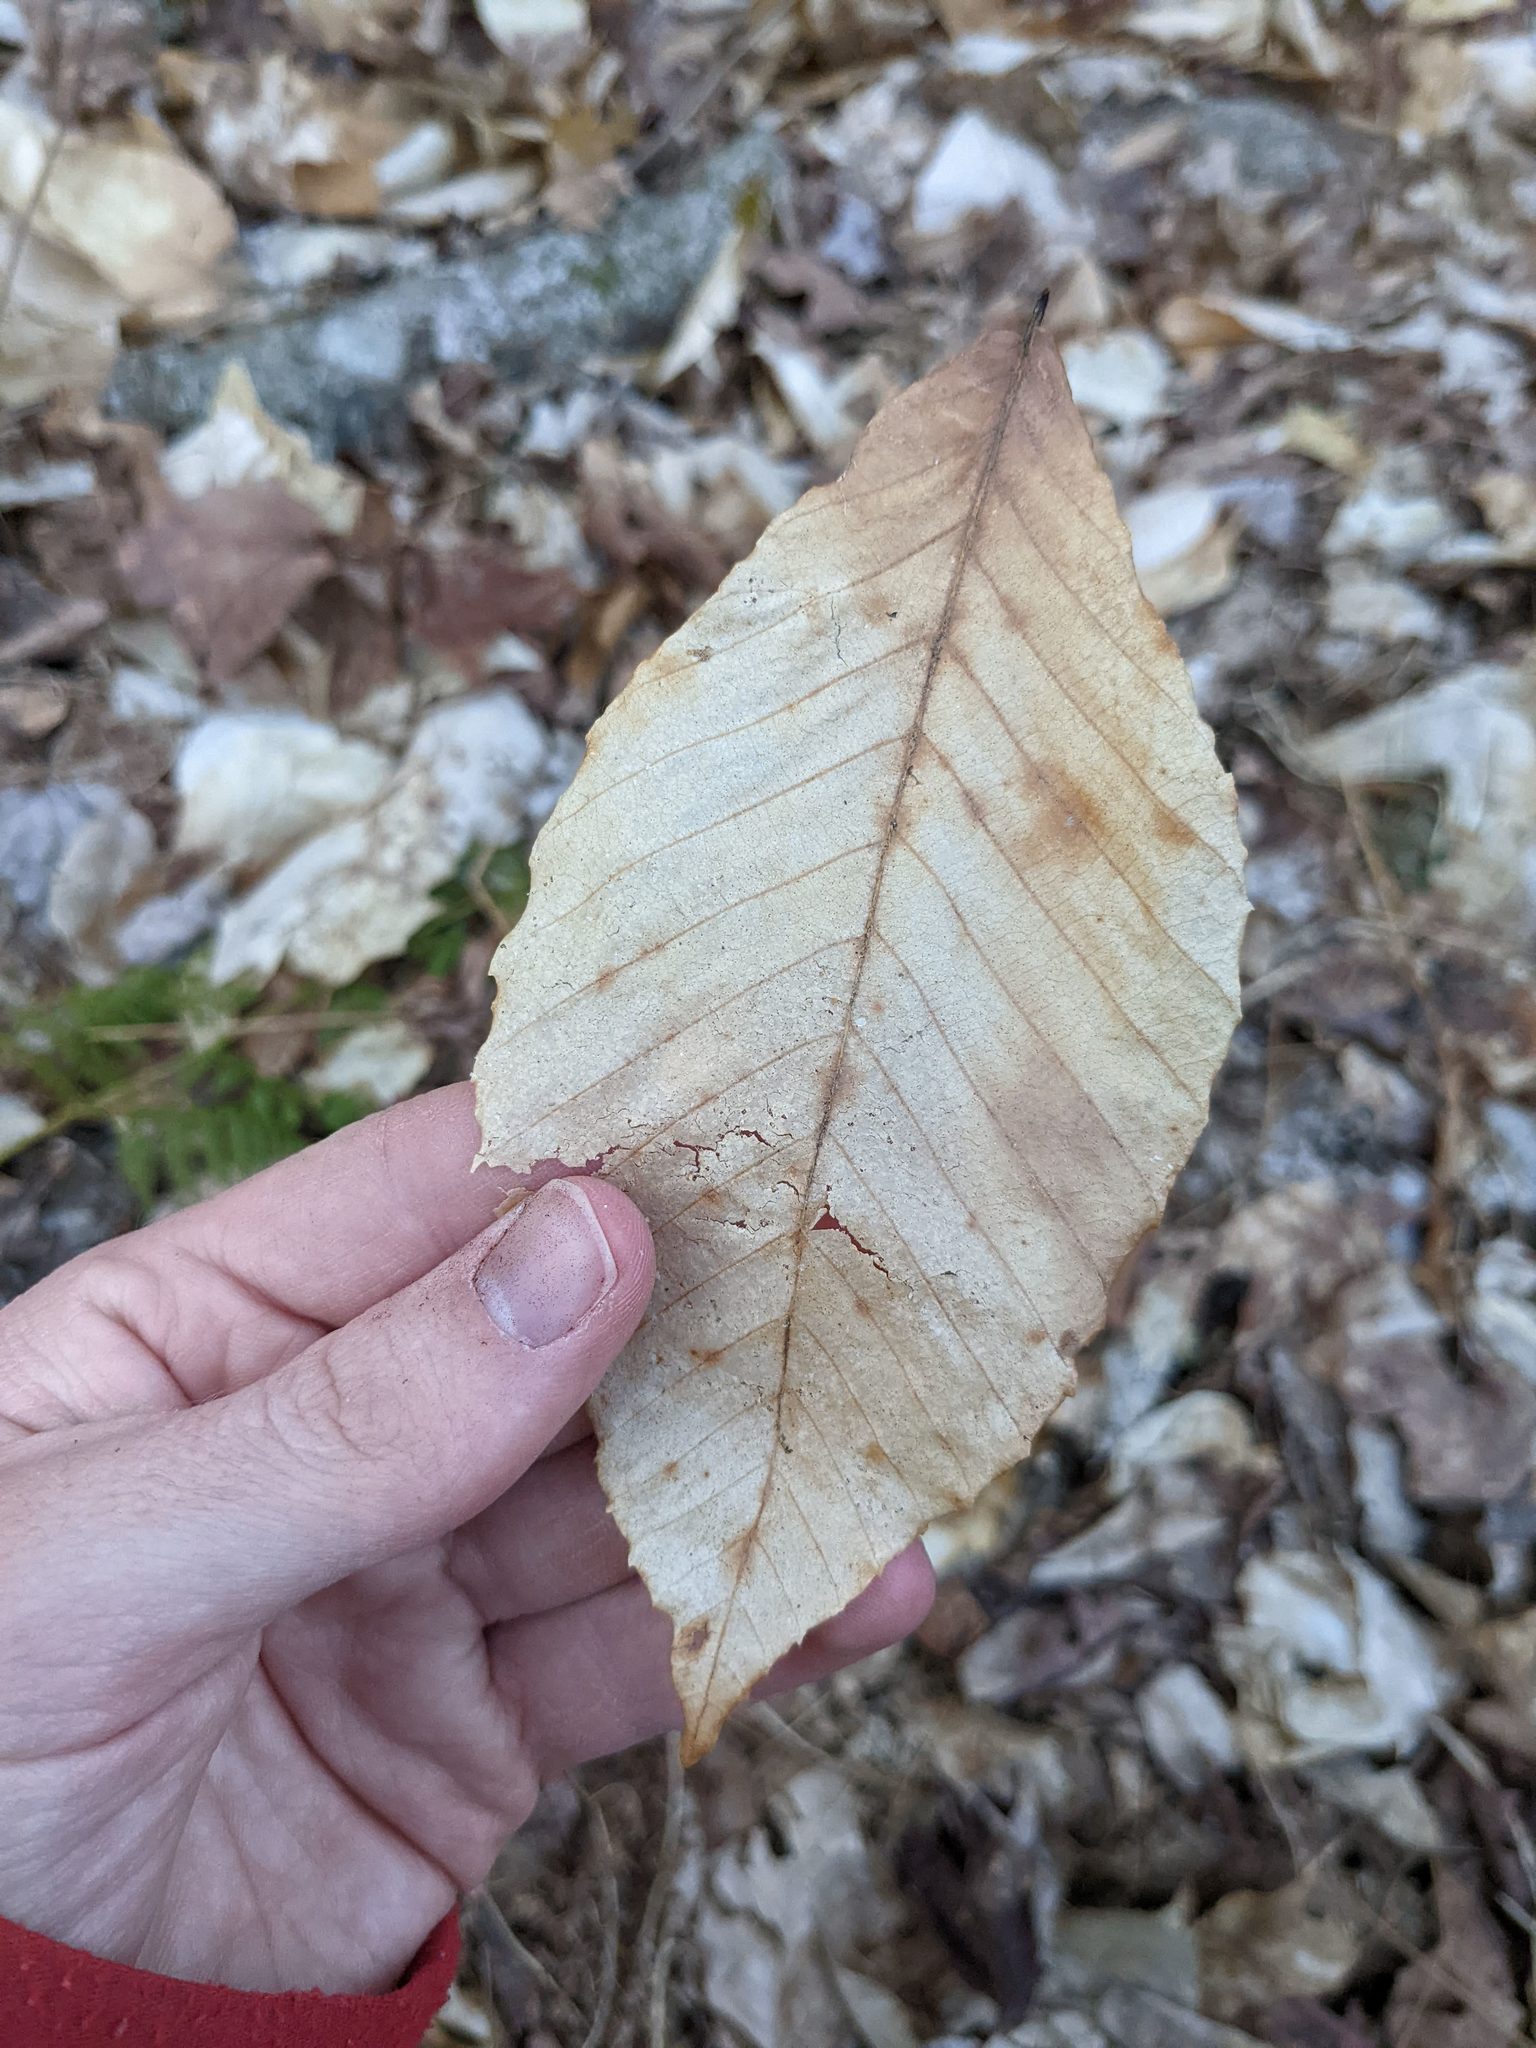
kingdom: Plantae
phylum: Tracheophyta
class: Magnoliopsida
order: Fagales
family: Fagaceae
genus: Fagus
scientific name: Fagus grandifolia
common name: American beech
